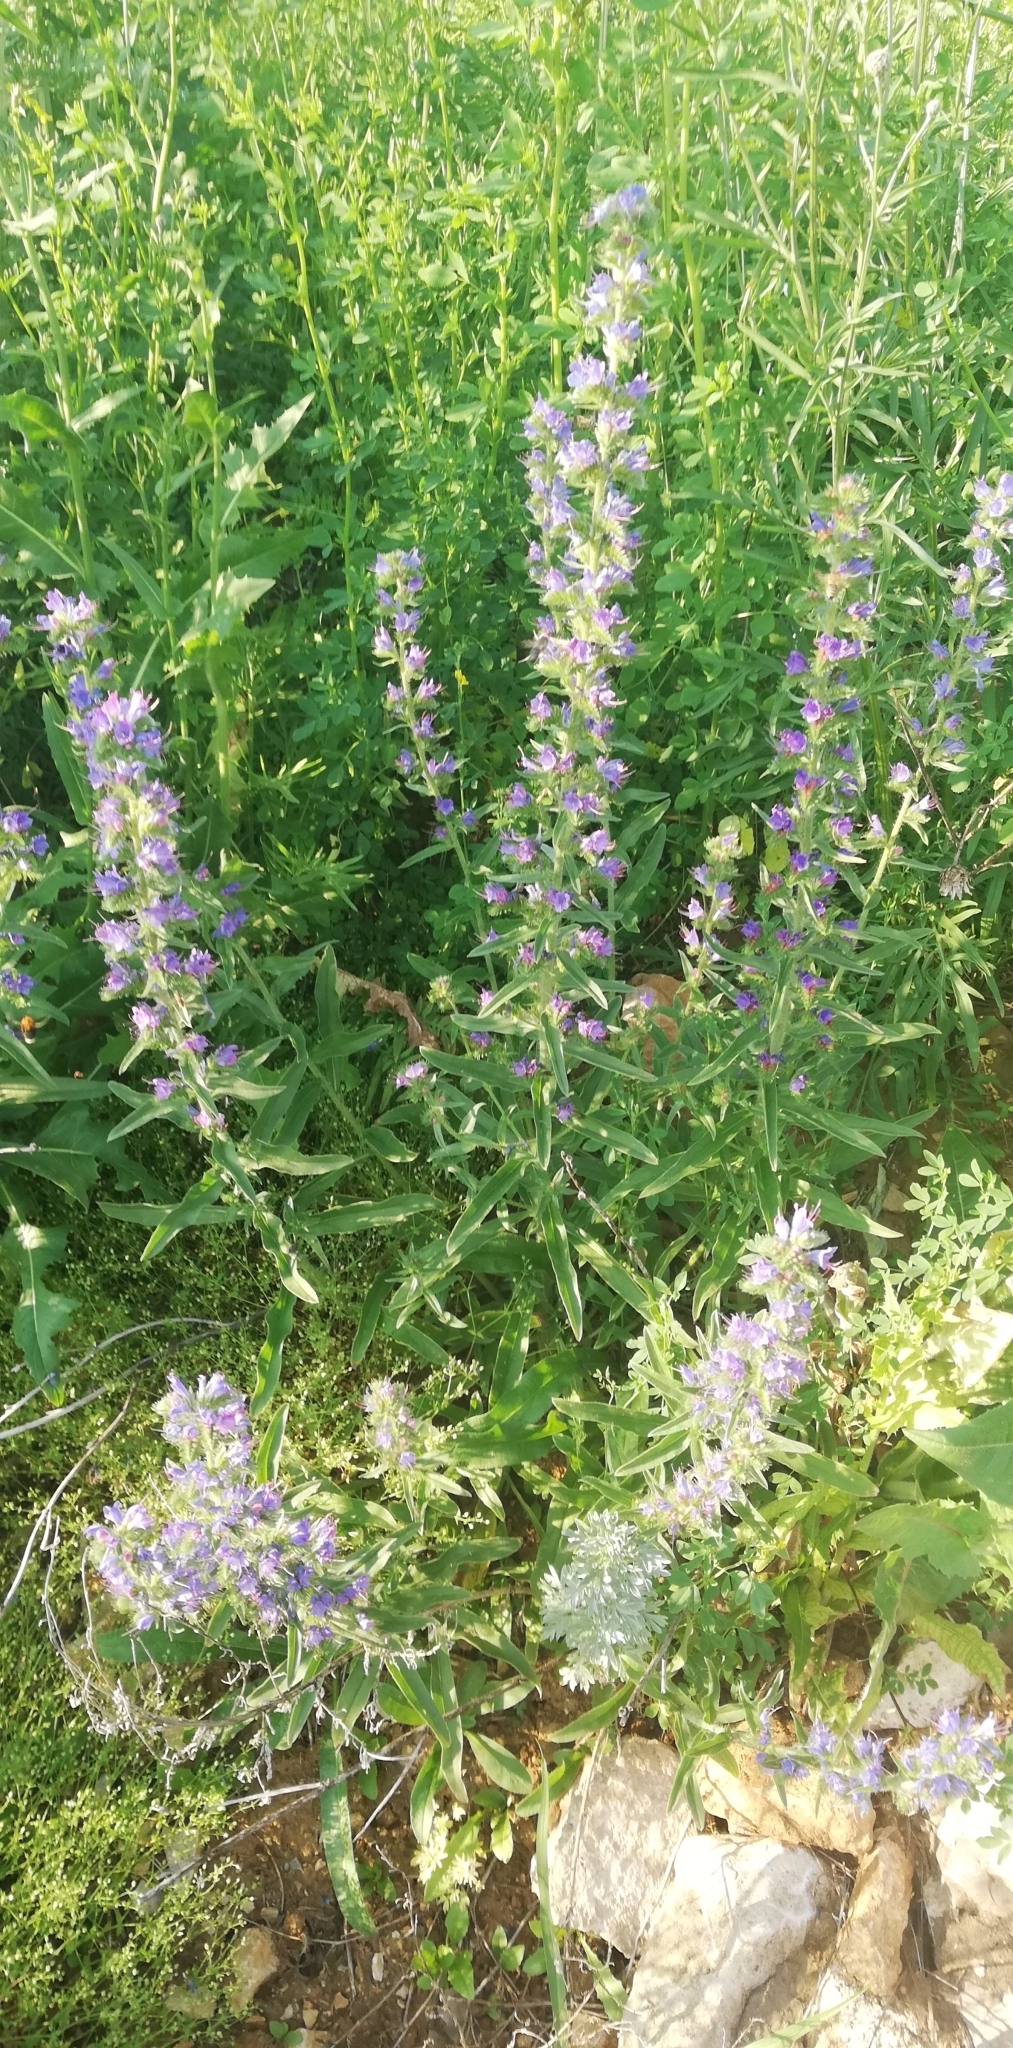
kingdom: Plantae
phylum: Tracheophyta
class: Magnoliopsida
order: Boraginales
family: Boraginaceae
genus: Echium
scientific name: Echium vulgare
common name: Common viper's bugloss
